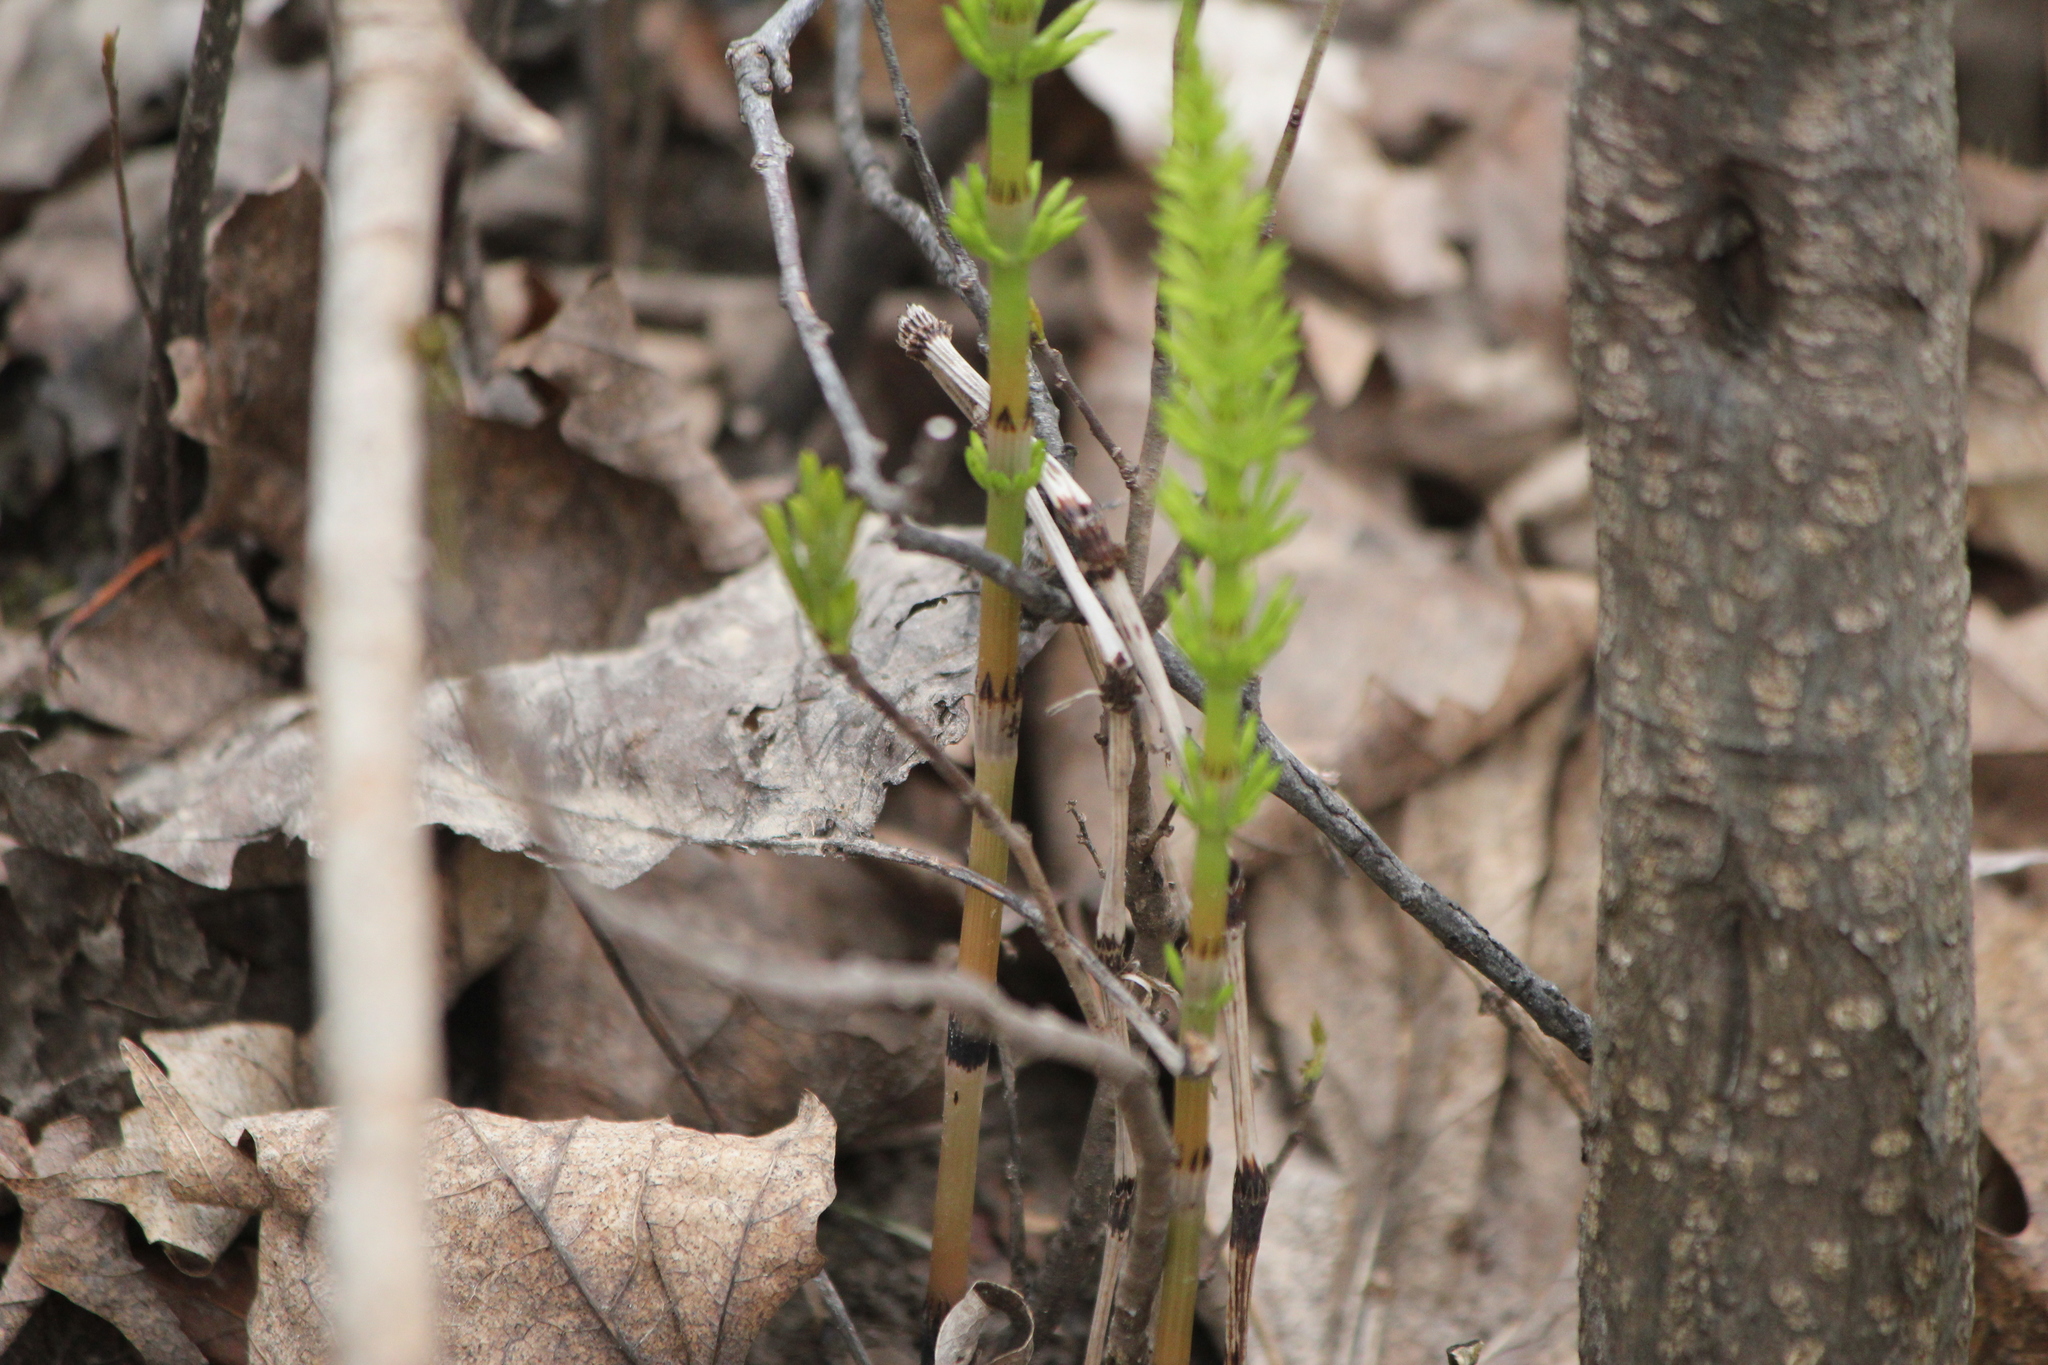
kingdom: Plantae
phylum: Tracheophyta
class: Polypodiopsida
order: Equisetales
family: Equisetaceae
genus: Equisetum
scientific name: Equisetum arvense
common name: Field horsetail
